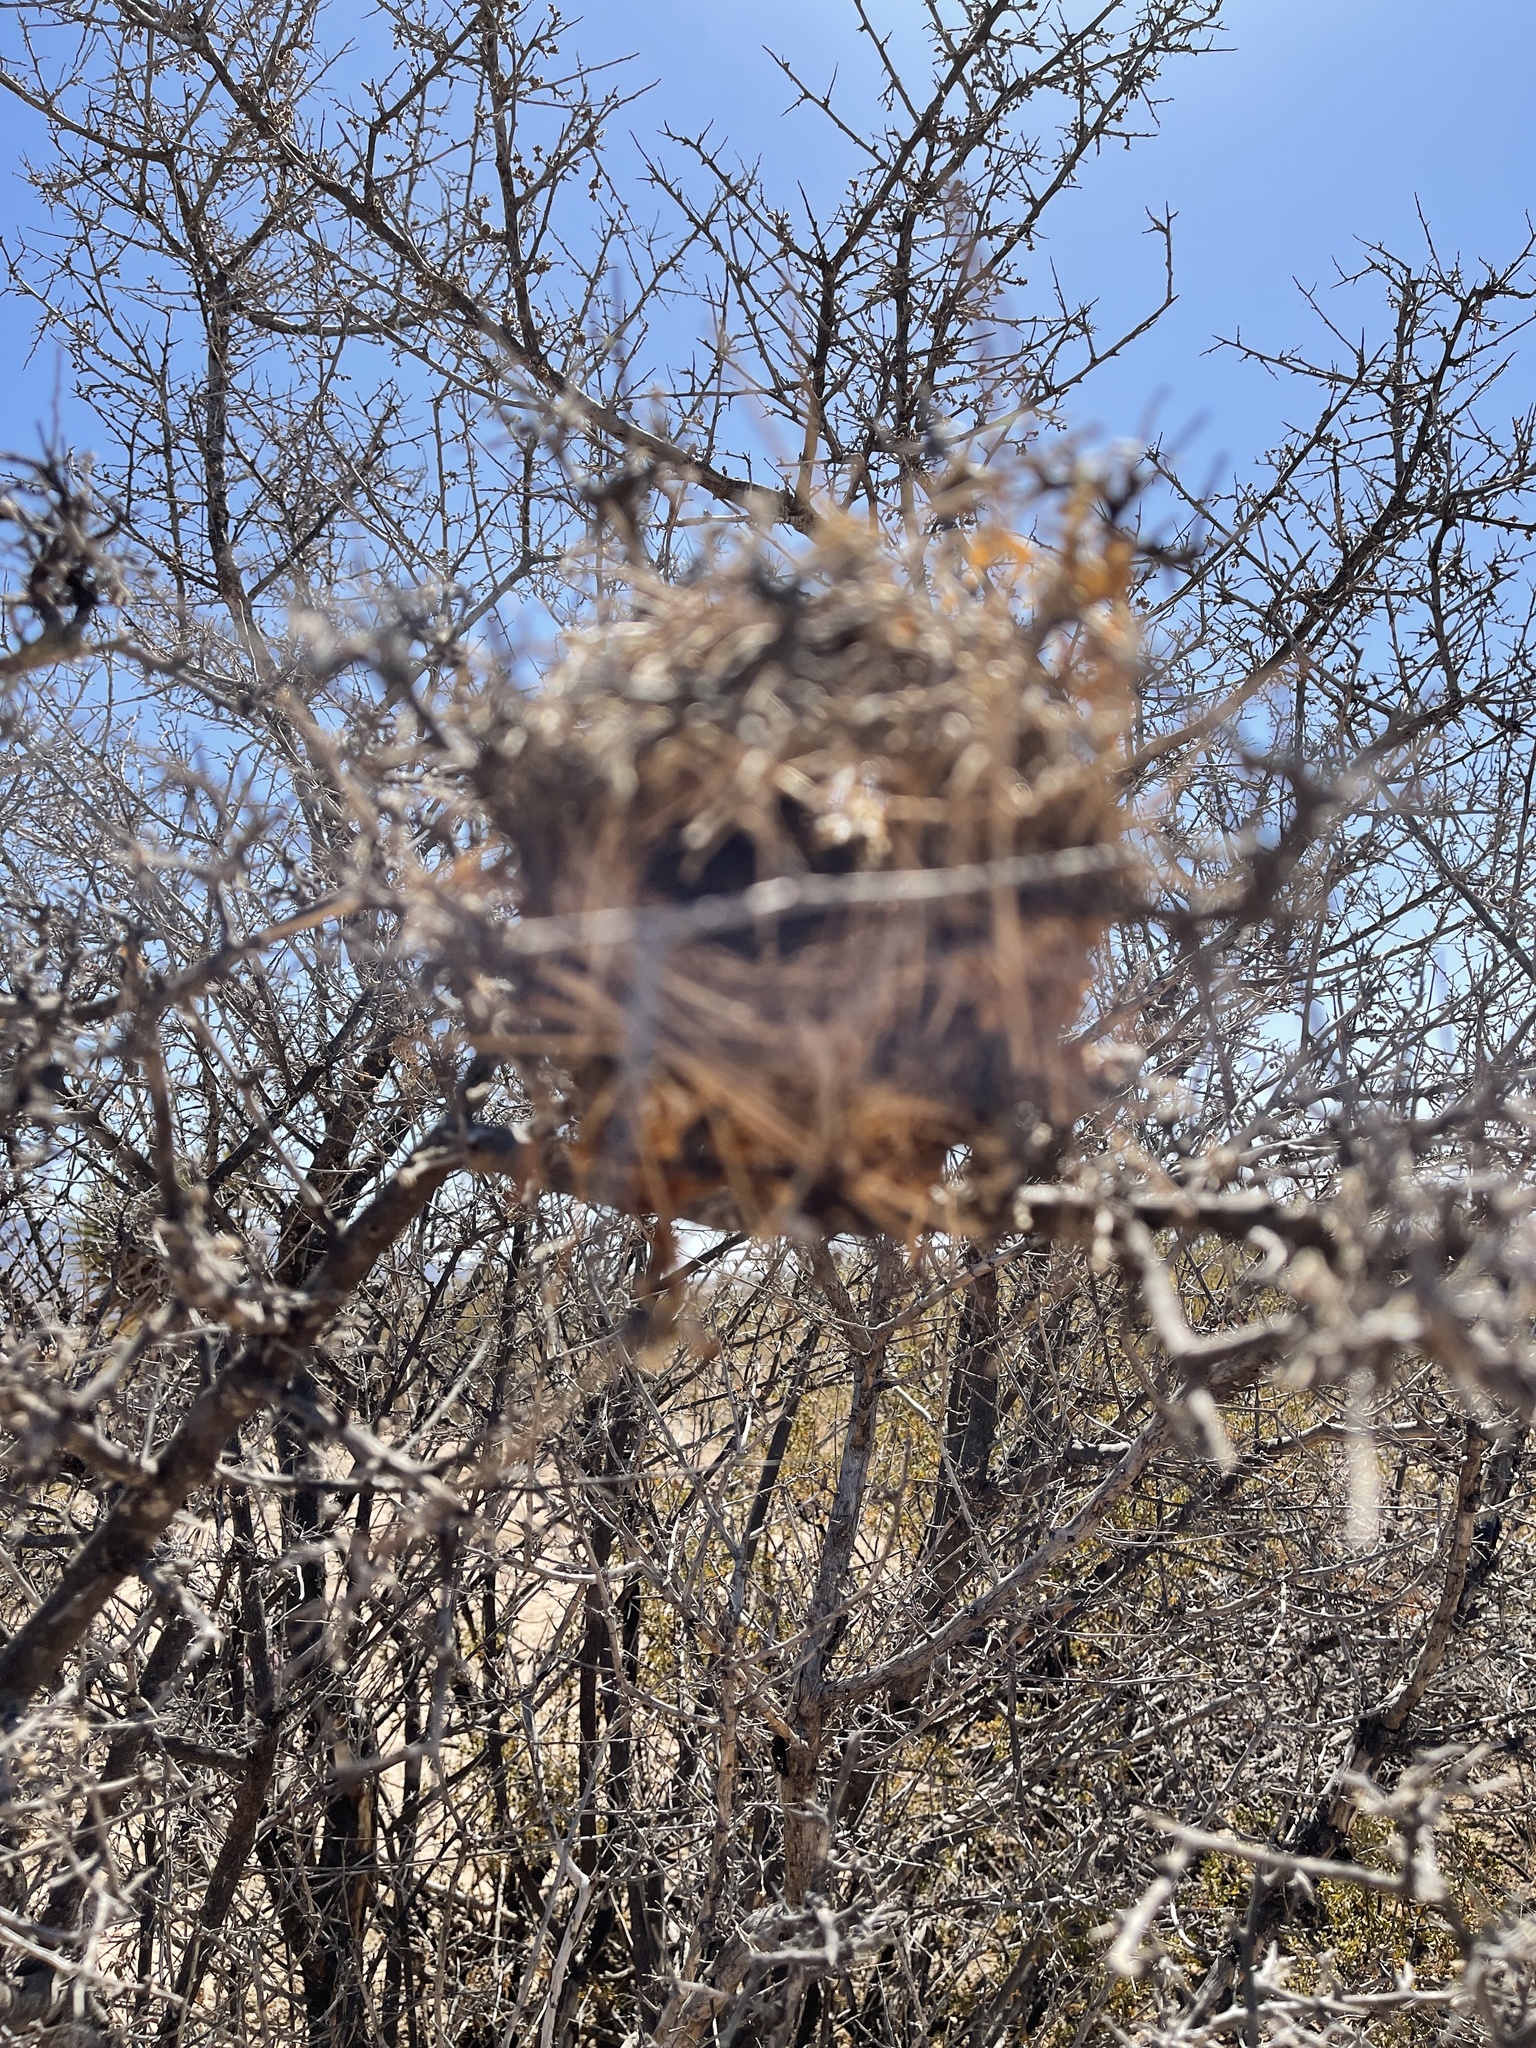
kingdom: Animalia
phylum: Chordata
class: Aves
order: Passeriformes
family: Remizidae
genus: Auriparus
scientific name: Auriparus flaviceps
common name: Verdin
